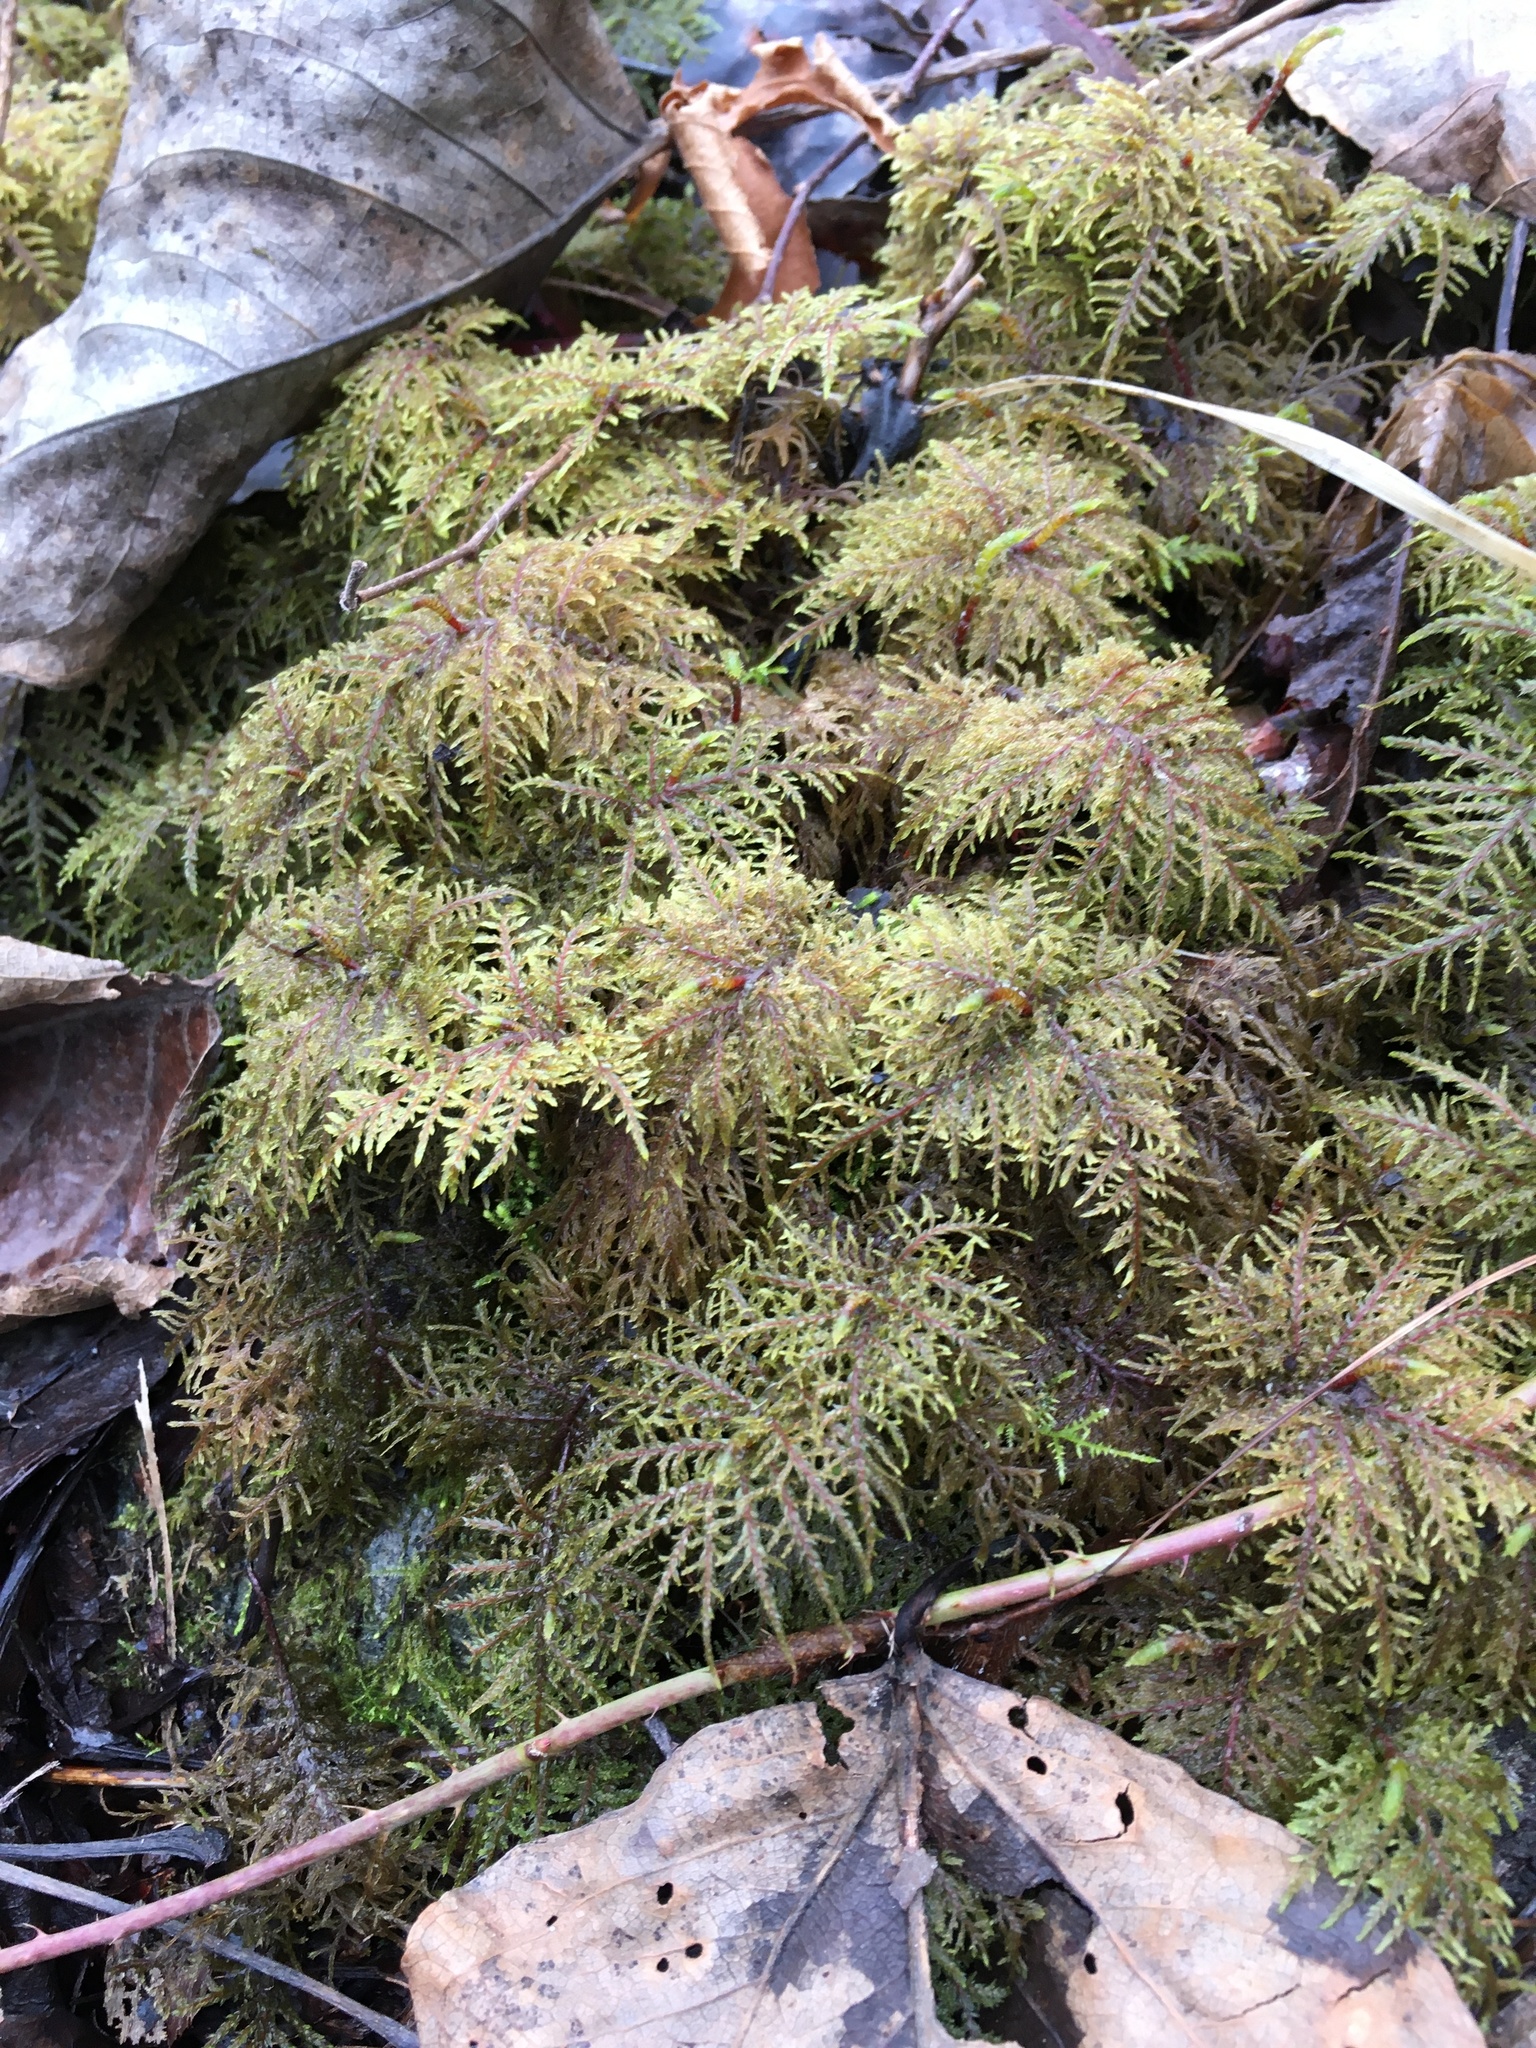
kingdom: Plantae
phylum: Bryophyta
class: Bryopsida
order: Hypnales
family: Hylocomiaceae
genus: Hylocomium
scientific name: Hylocomium splendens
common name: Stairstep moss
